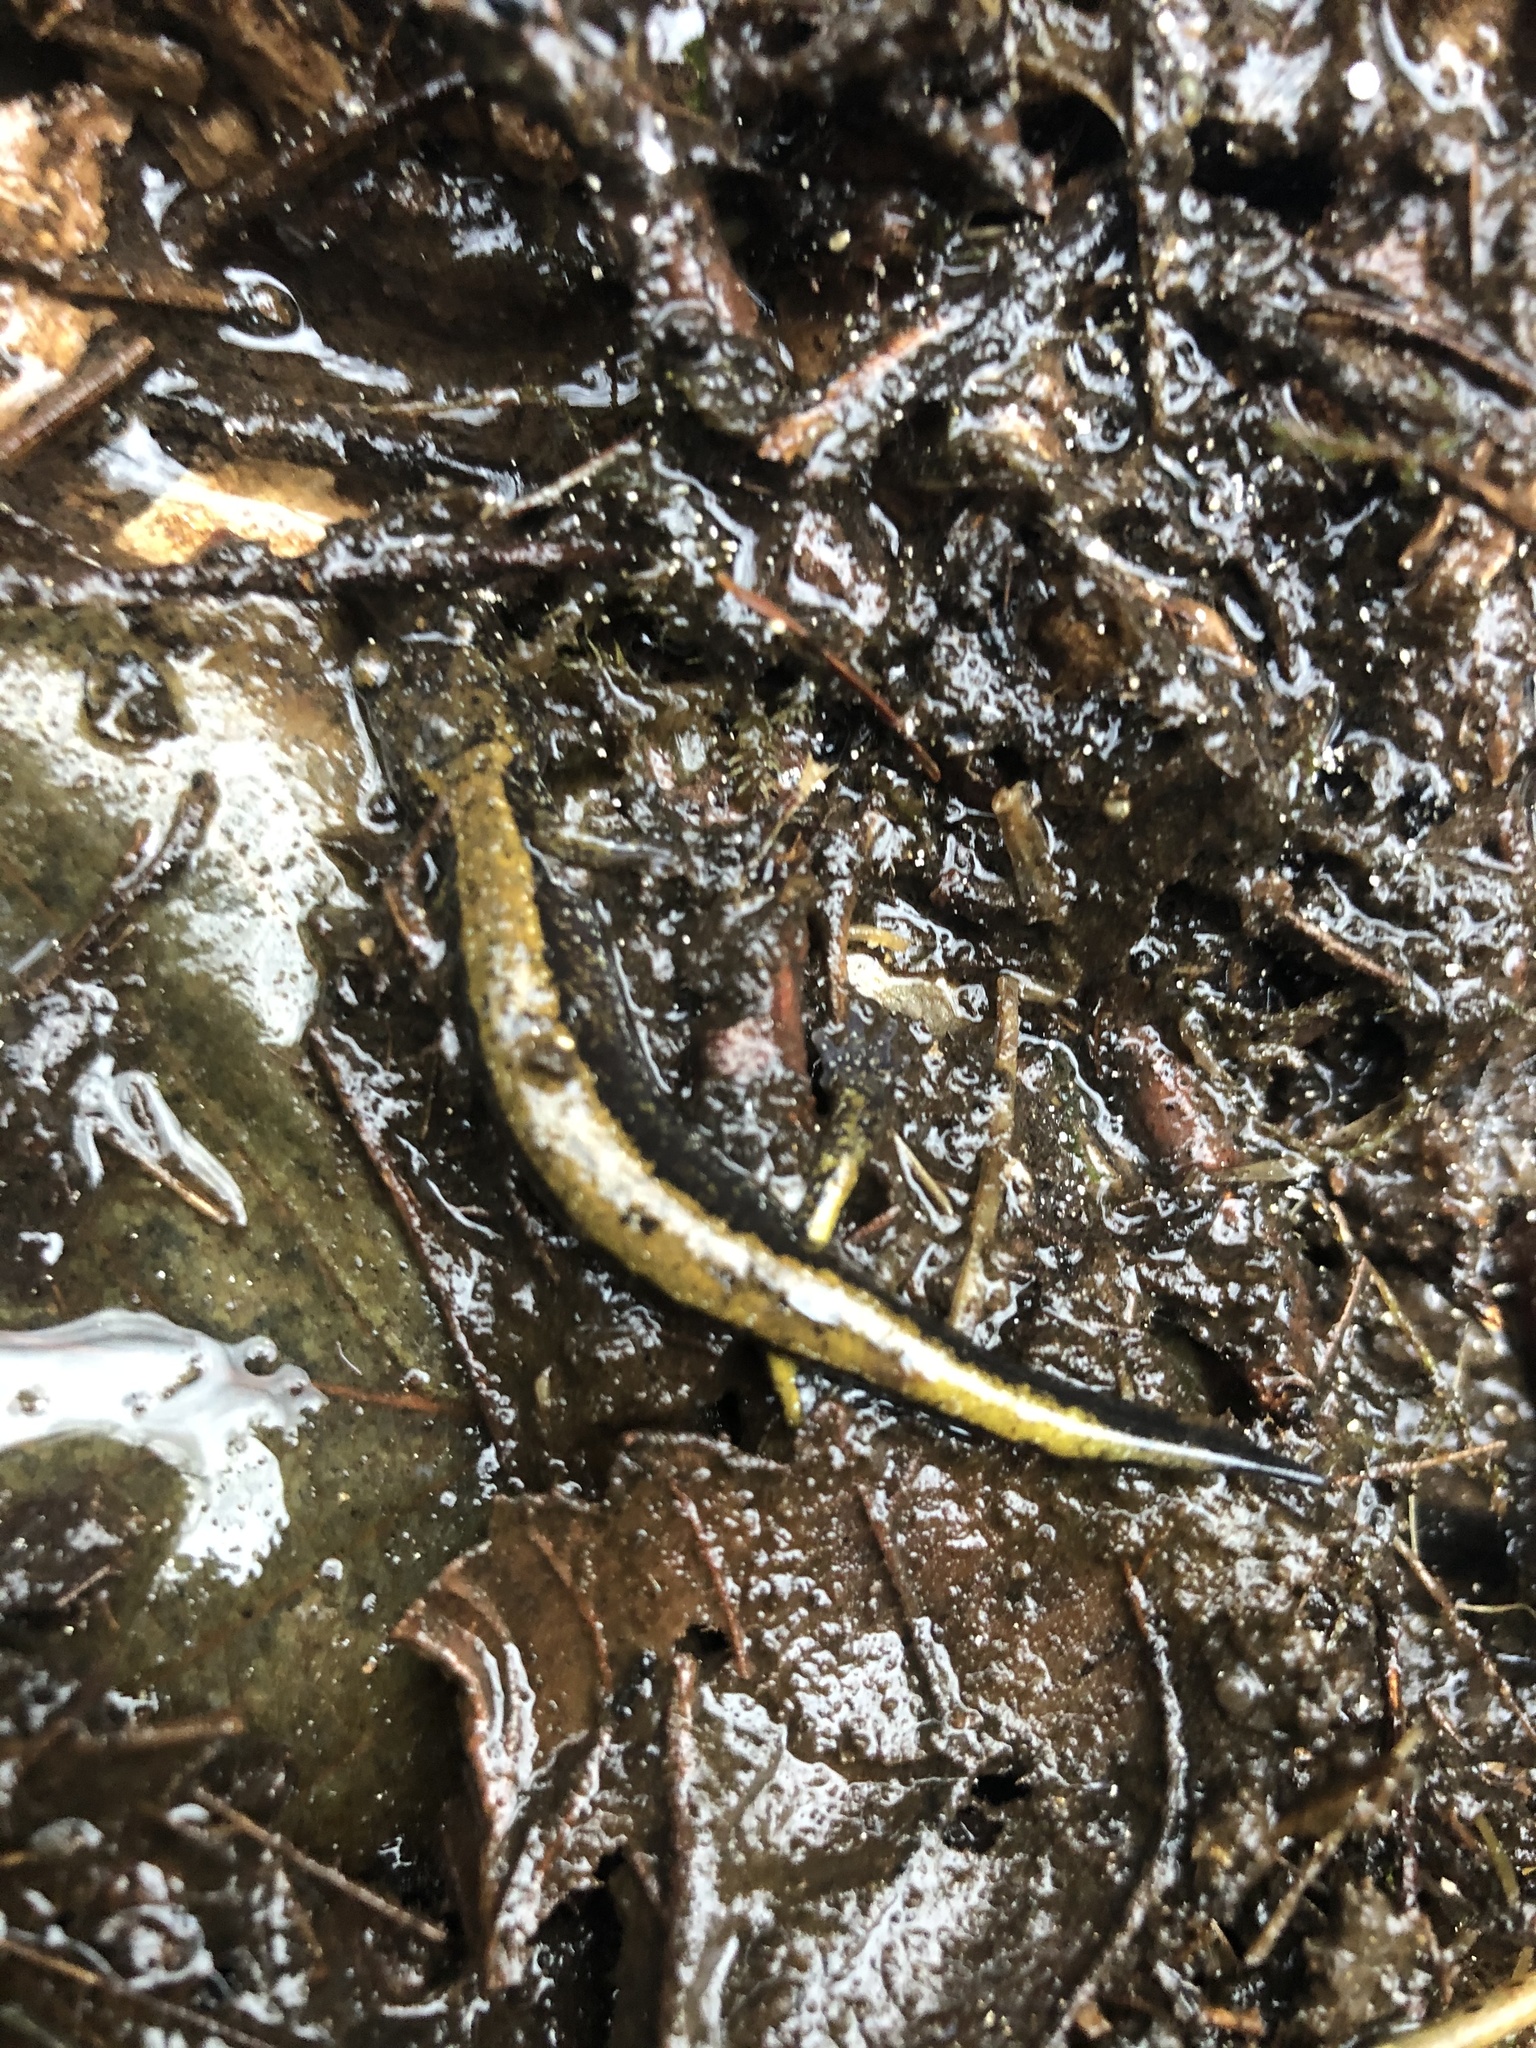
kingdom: Animalia
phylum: Chordata
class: Amphibia
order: Caudata
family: Plethodontidae
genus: Plethodon
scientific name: Plethodon dunni
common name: Dunn's salamander
